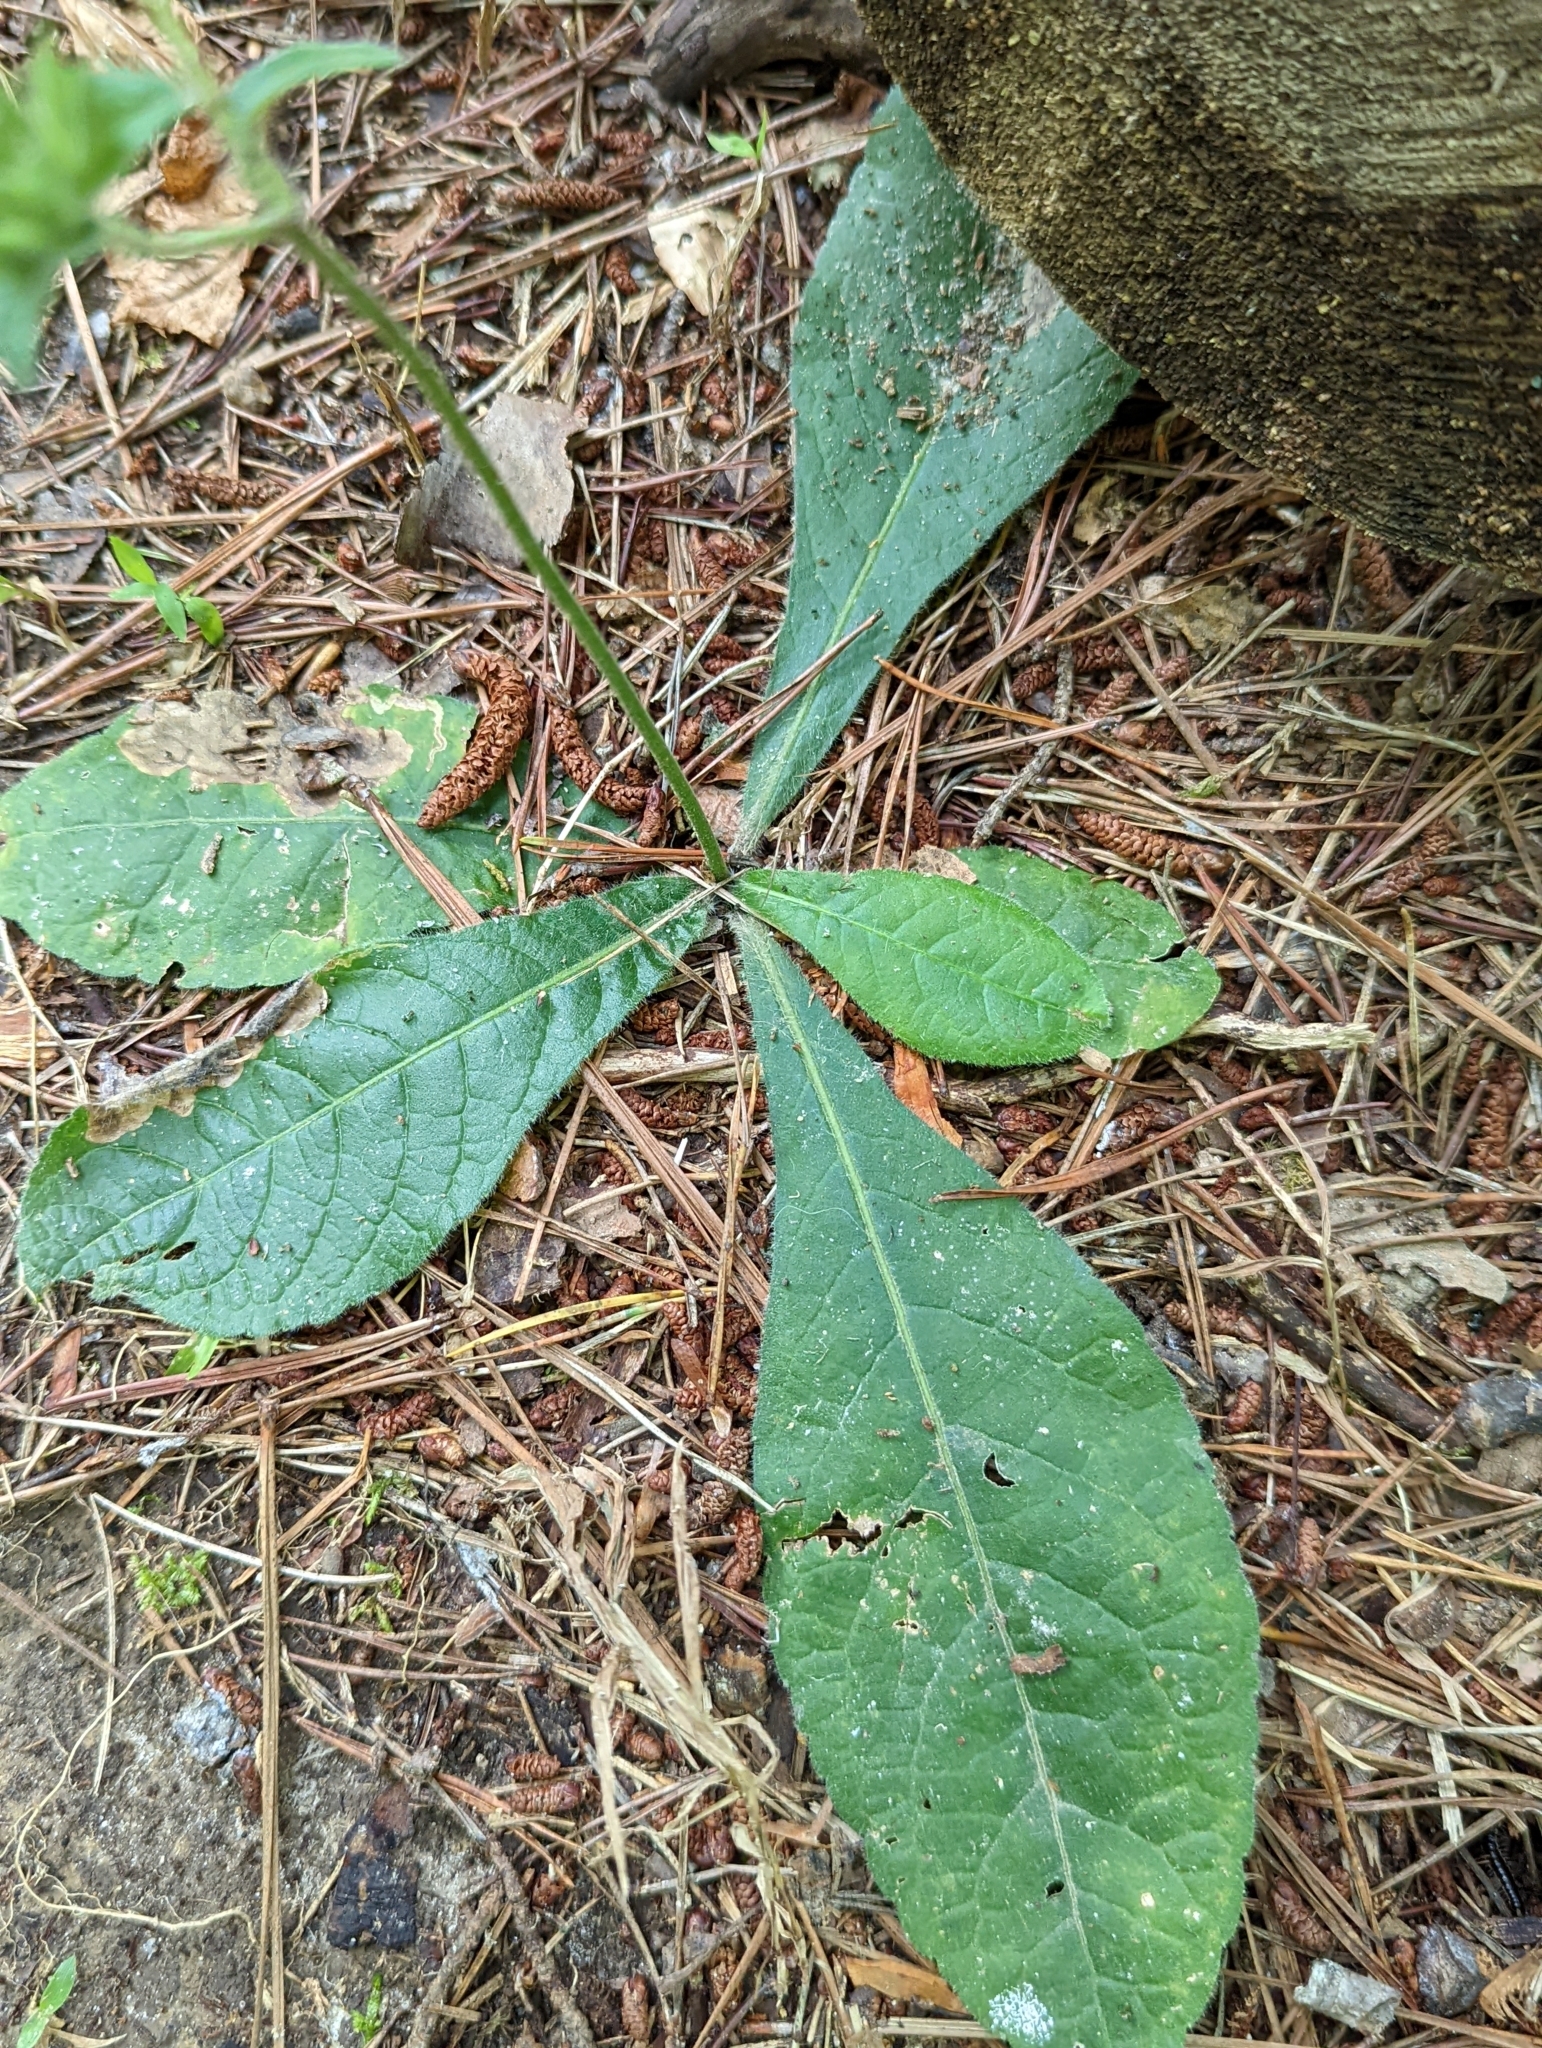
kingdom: Plantae
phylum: Tracheophyta
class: Magnoliopsida
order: Asterales
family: Asteraceae
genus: Elephantopus
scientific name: Elephantopus tomentosus
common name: Tobacco-weed
